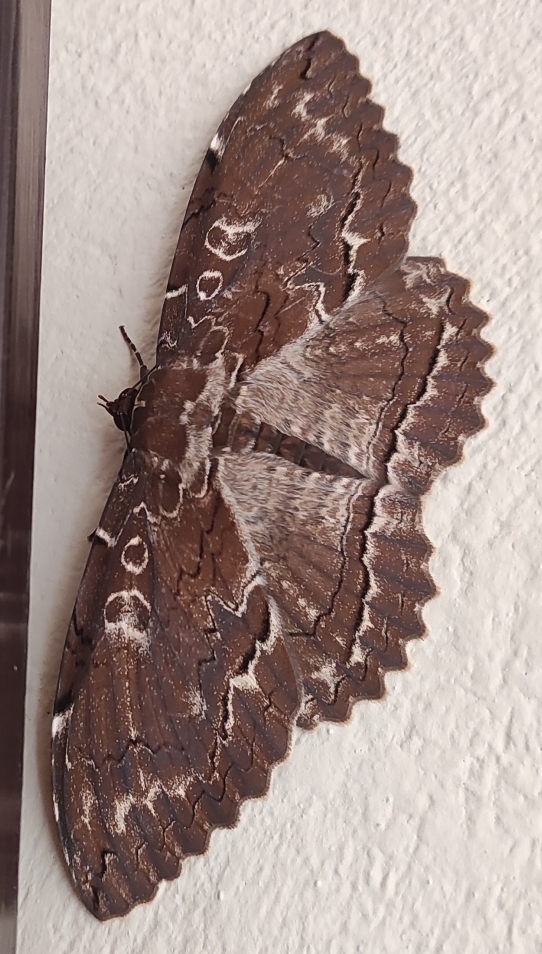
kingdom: Animalia
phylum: Arthropoda
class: Insecta
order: Lepidoptera
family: Erebidae
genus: Thysania
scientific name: Thysania zenobia
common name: Owl moth
